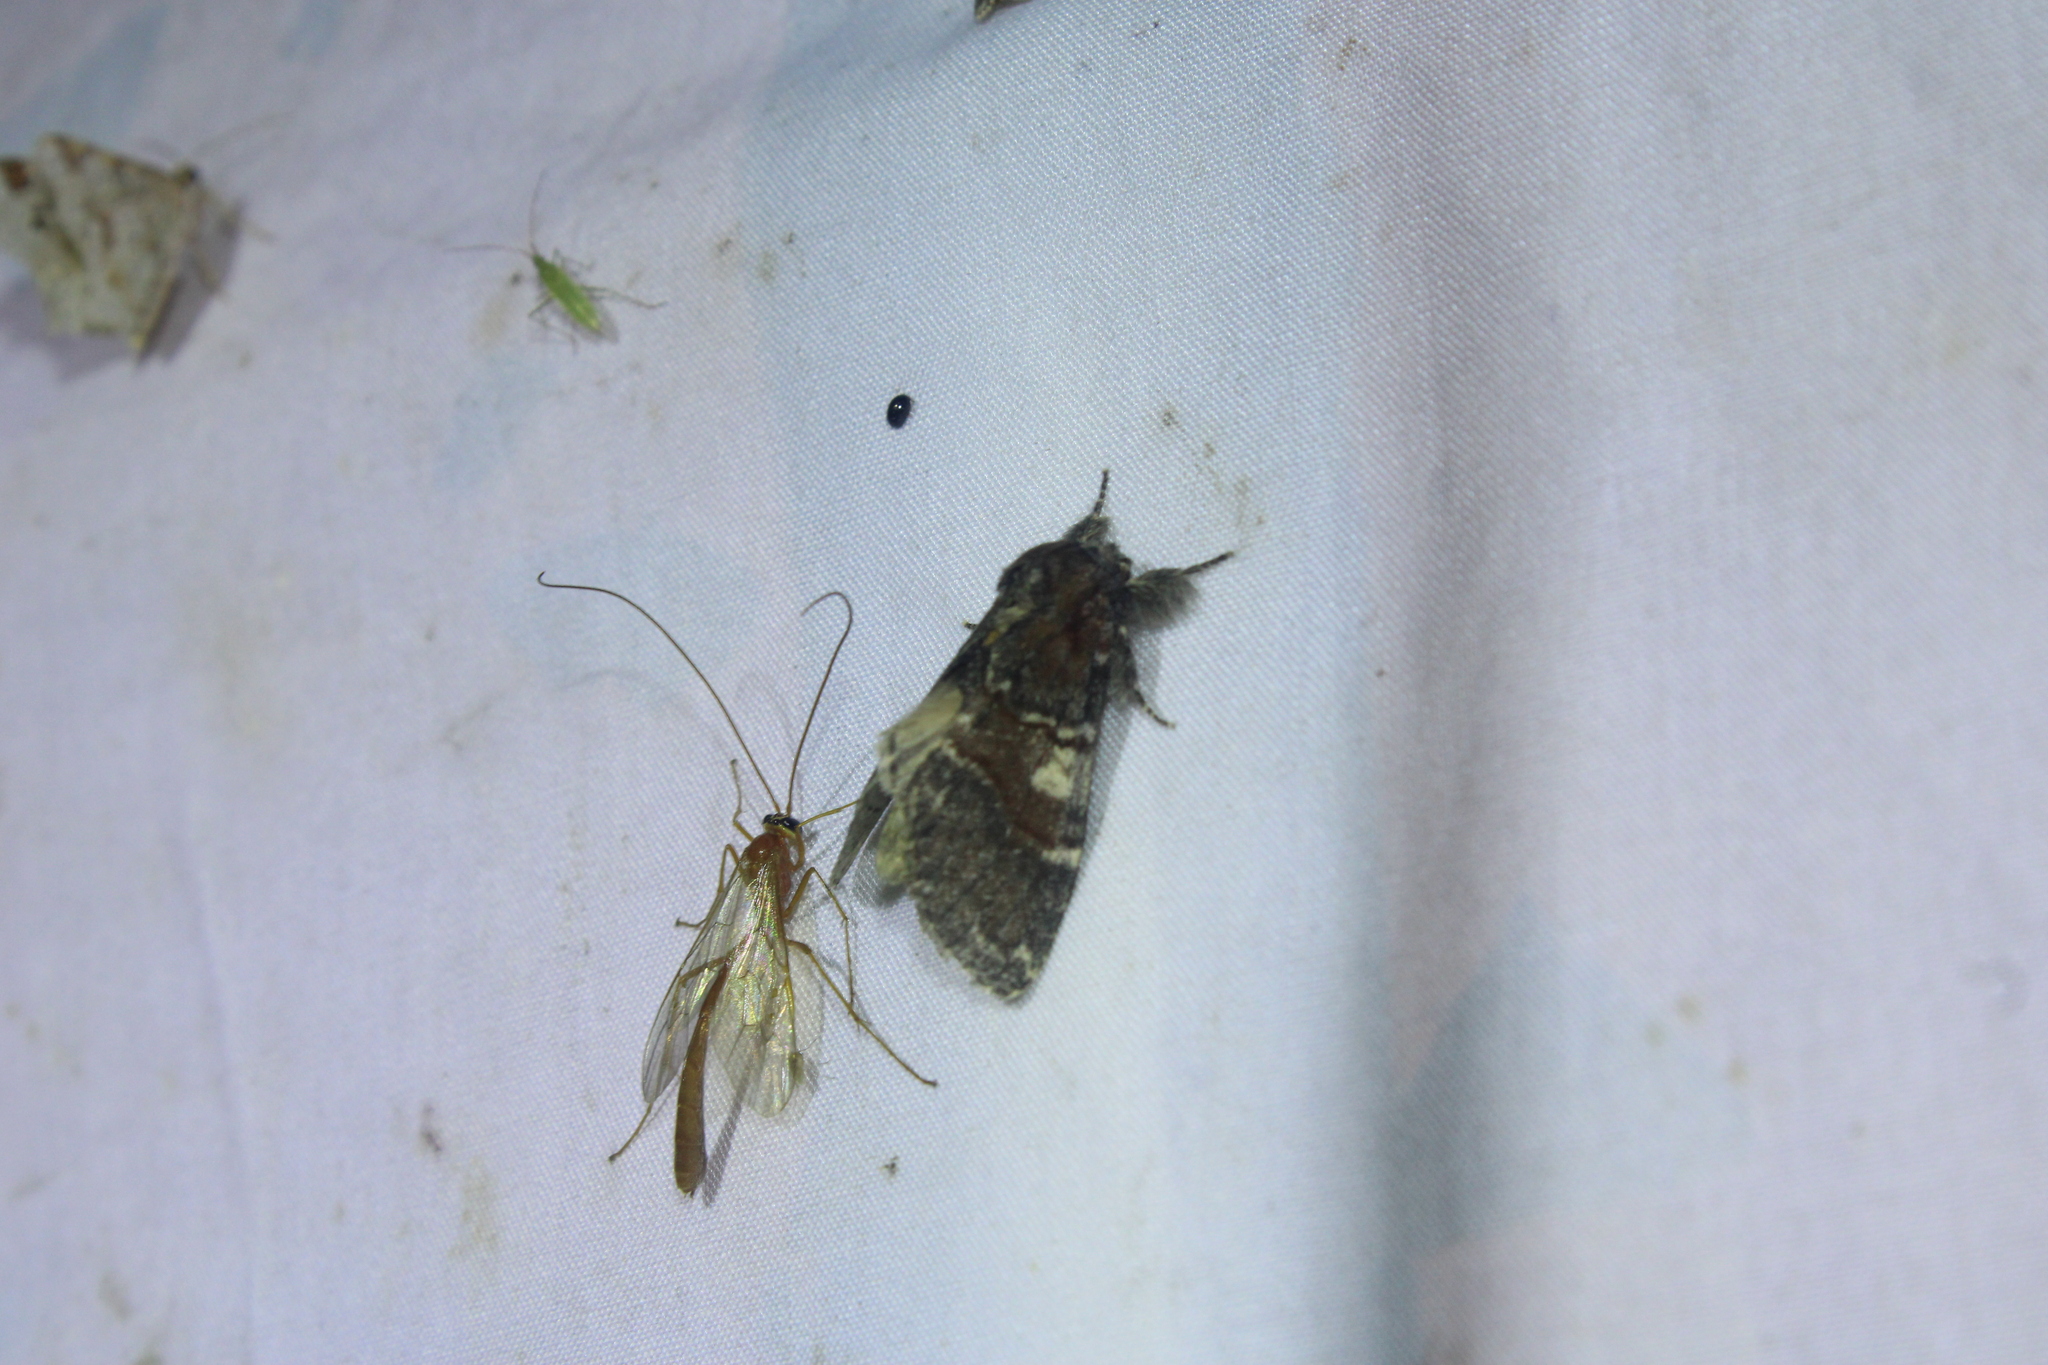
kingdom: Animalia
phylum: Arthropoda
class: Insecta
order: Lepidoptera
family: Notodontidae
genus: Peridea
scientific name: Peridea ferruginea
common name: Chocolate prominent
